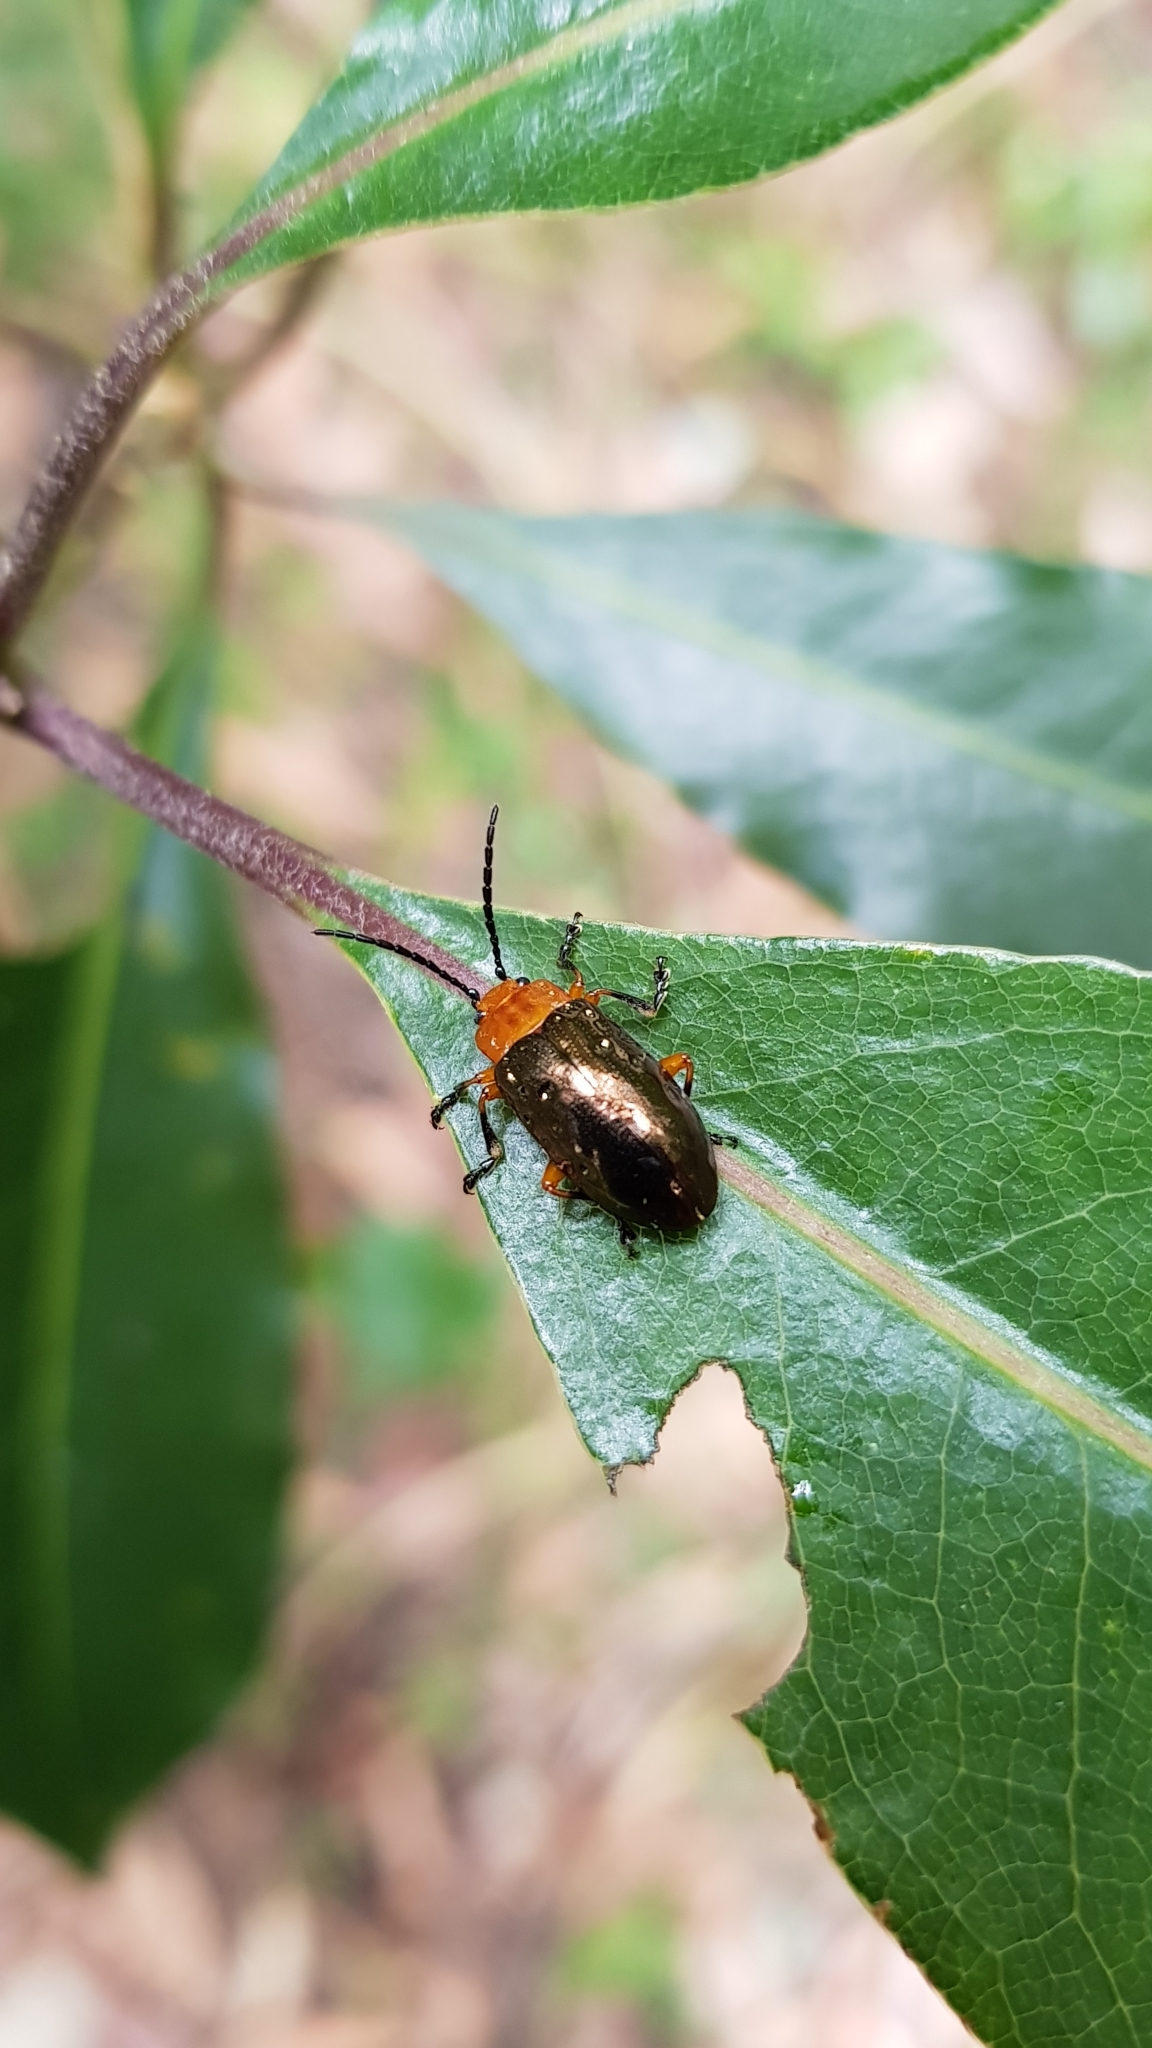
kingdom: Animalia
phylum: Arthropoda
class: Insecta
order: Coleoptera
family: Chrysomelidae
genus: Lamprolina
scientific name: Lamprolina
